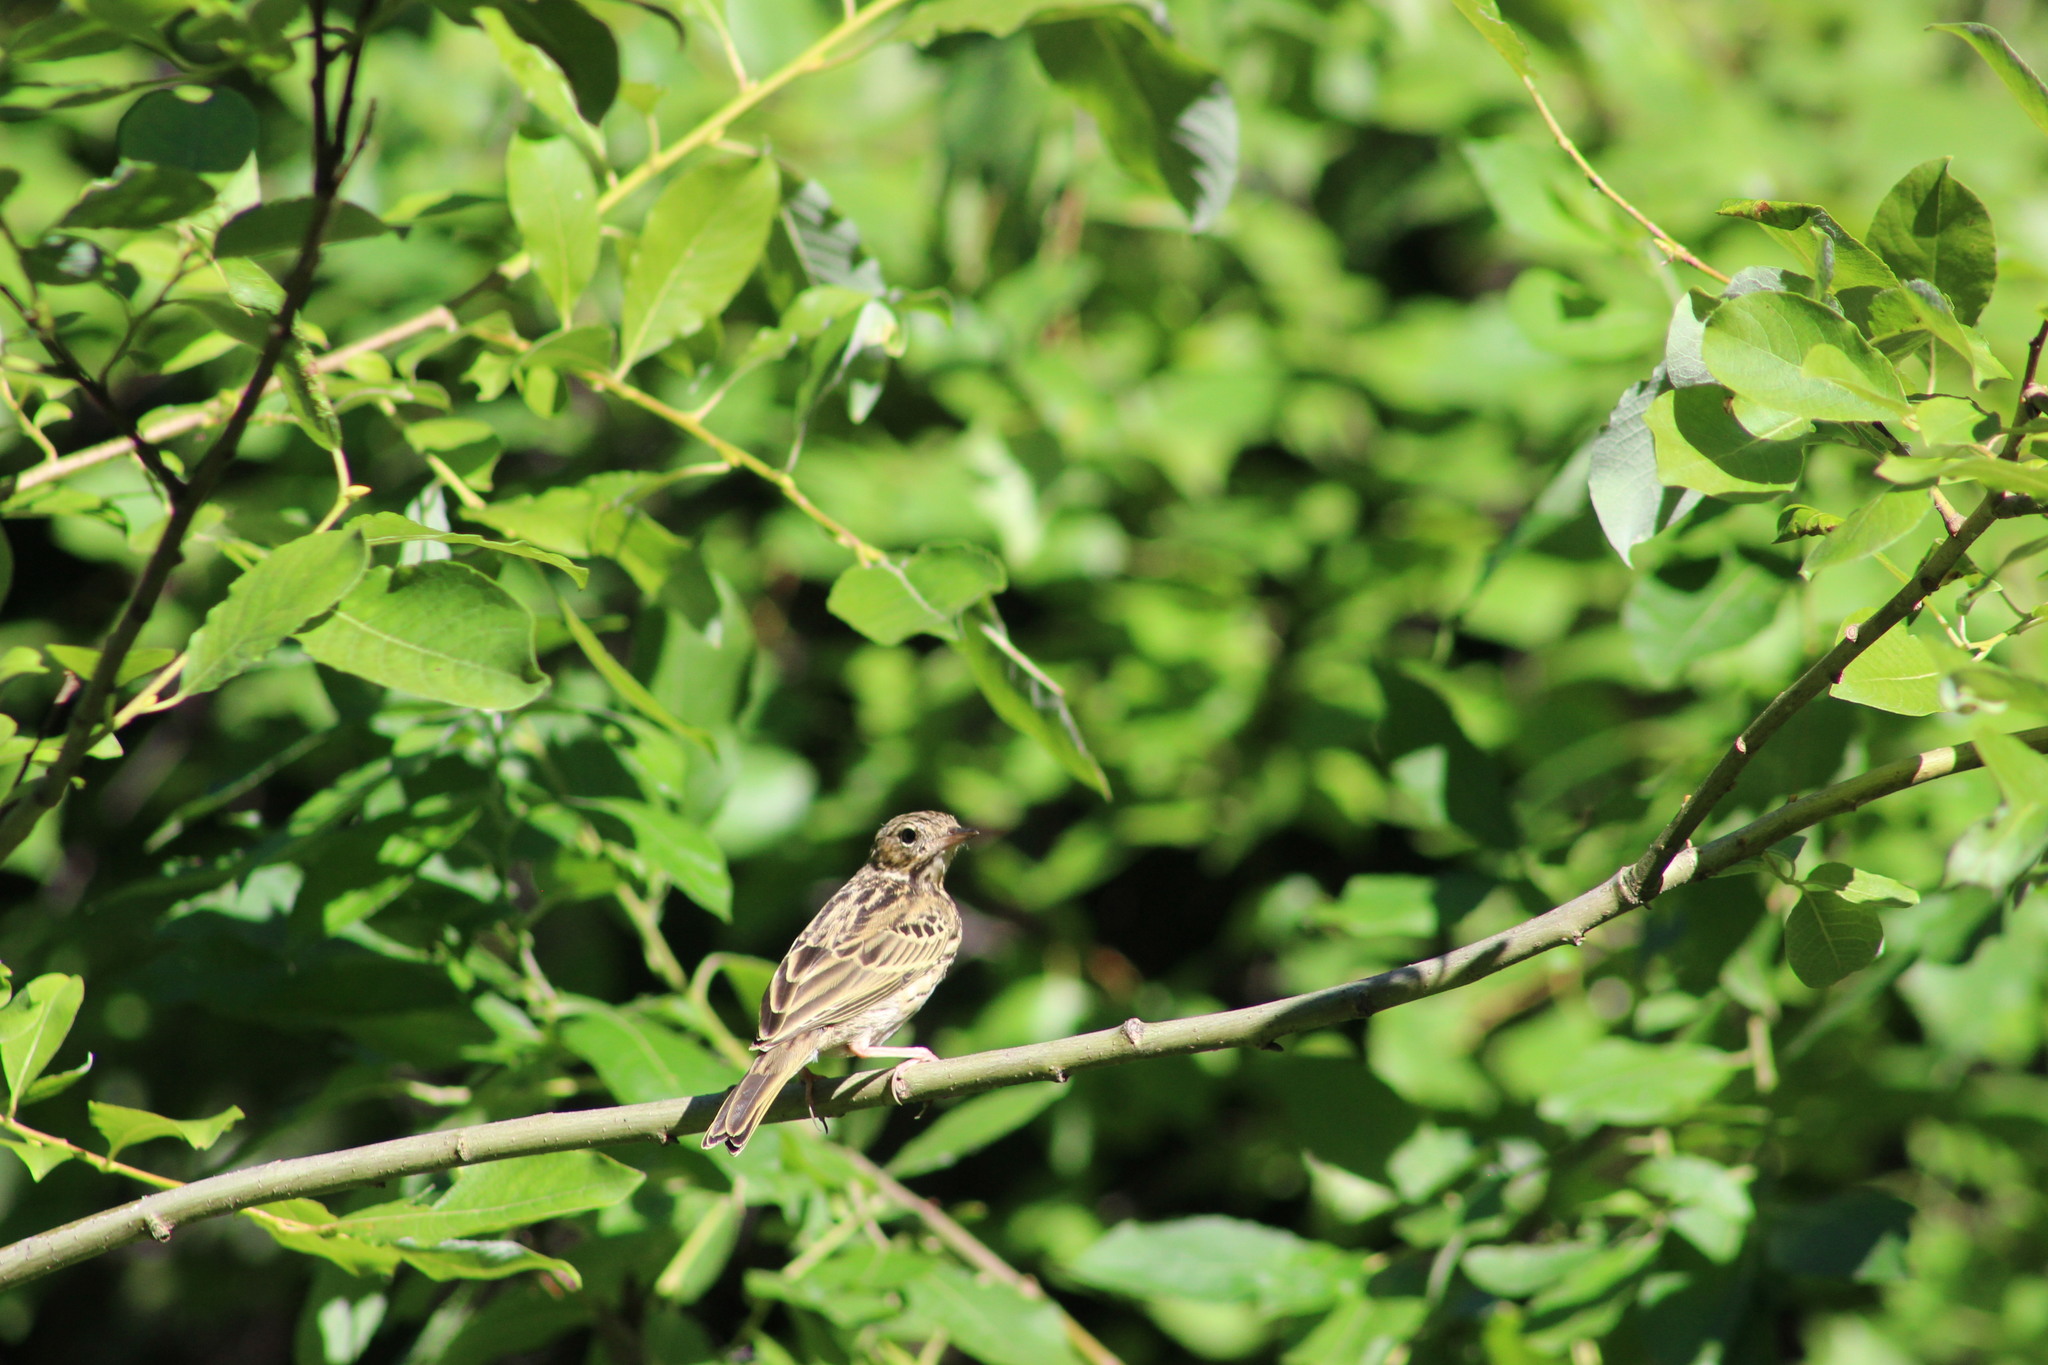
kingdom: Animalia
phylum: Chordata
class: Aves
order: Passeriformes
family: Motacillidae
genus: Anthus
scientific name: Anthus trivialis
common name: Tree pipit
